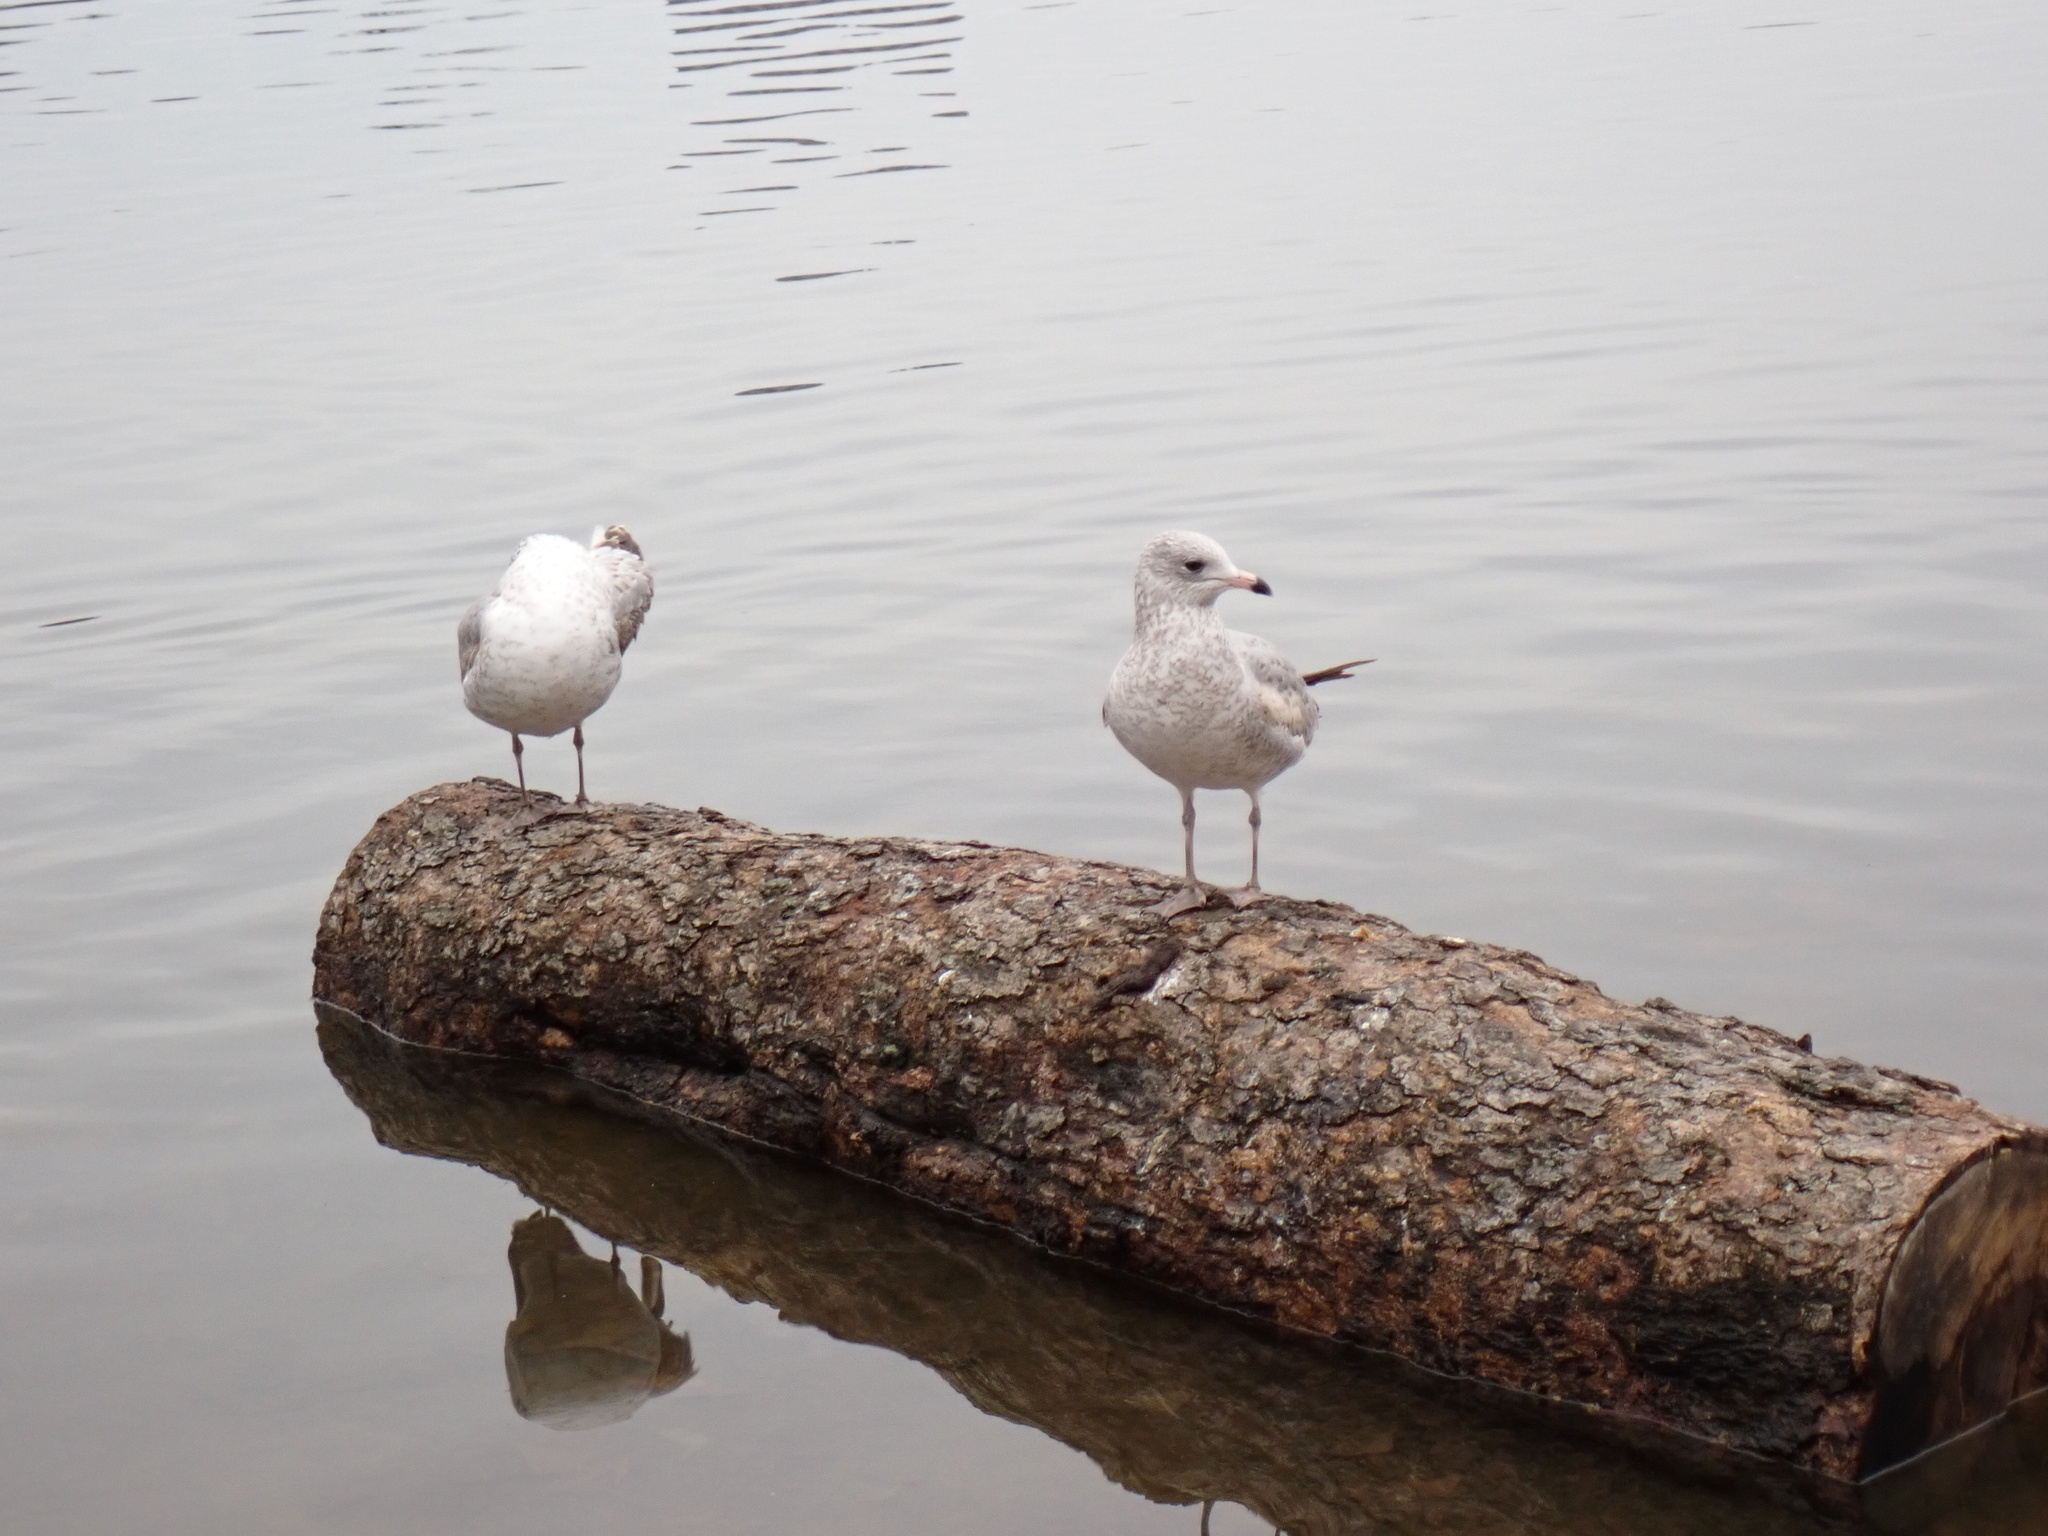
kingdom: Animalia
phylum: Chordata
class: Aves
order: Charadriiformes
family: Laridae
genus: Larus
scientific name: Larus delawarensis
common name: Ring-billed gull
